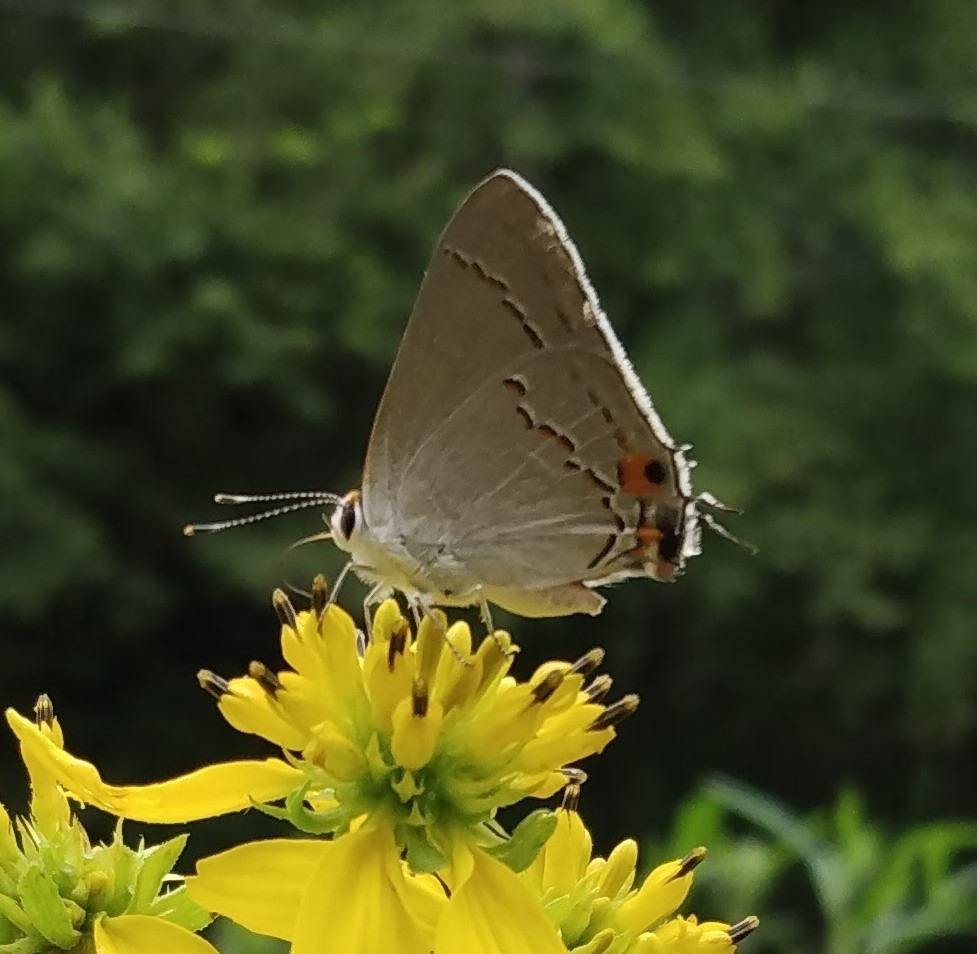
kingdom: Animalia
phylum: Arthropoda
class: Insecta
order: Lepidoptera
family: Lycaenidae
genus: Strymon
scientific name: Strymon melinus
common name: Gray hairstreak
